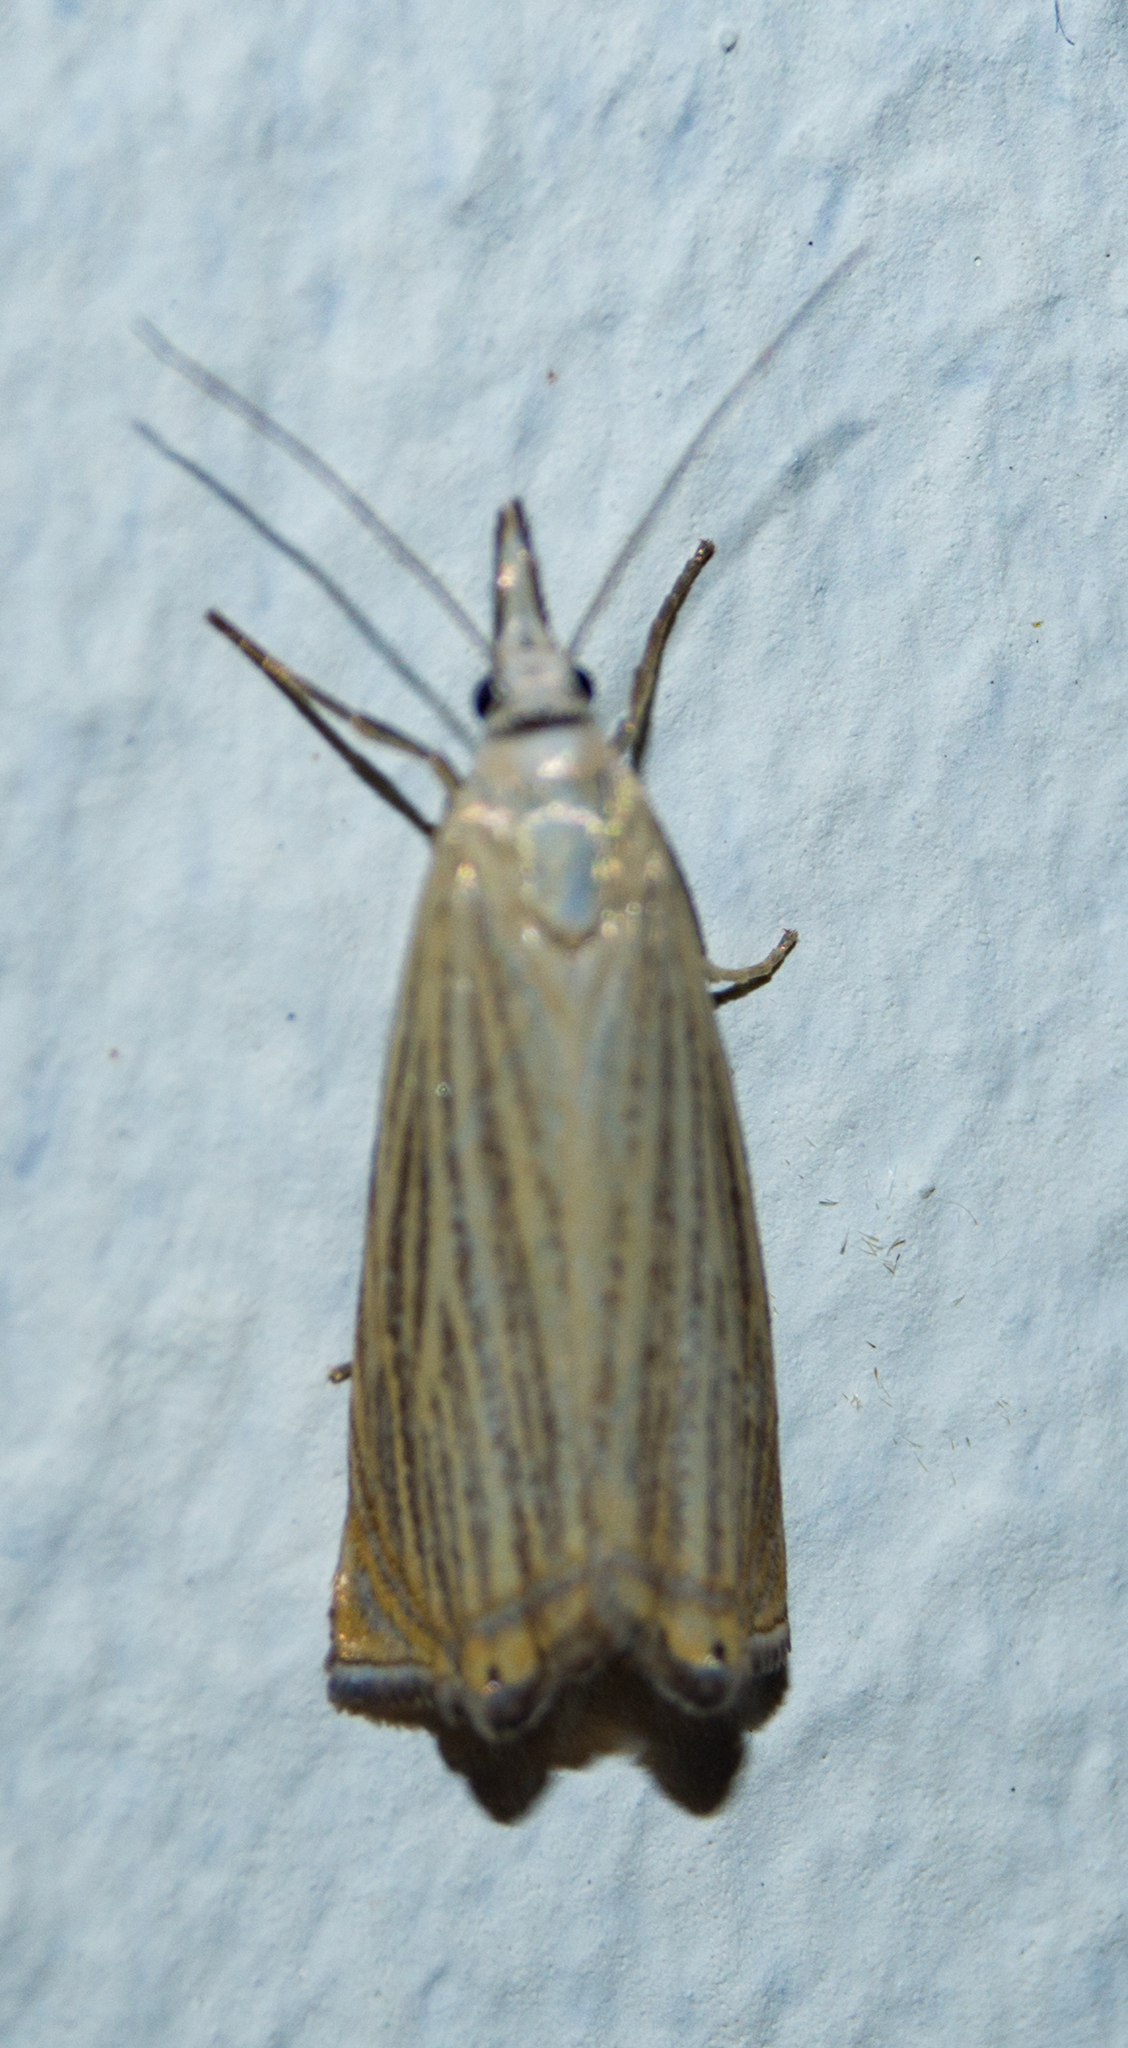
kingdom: Animalia
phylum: Arthropoda
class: Insecta
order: Lepidoptera
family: Crambidae
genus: Chrysoteuchia
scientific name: Chrysoteuchia culmella
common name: Garden grass-veneer
